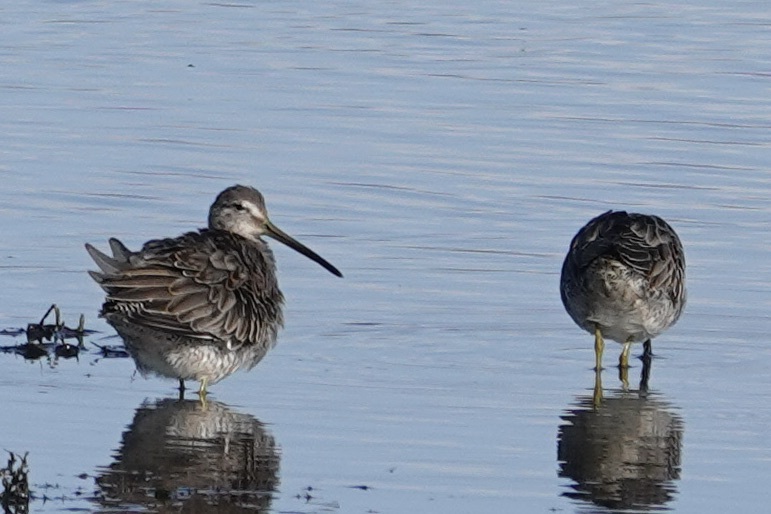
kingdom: Animalia
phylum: Chordata
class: Aves
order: Charadriiformes
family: Scolopacidae
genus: Limnodromus
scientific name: Limnodromus scolopaceus
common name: Long-billed dowitcher
